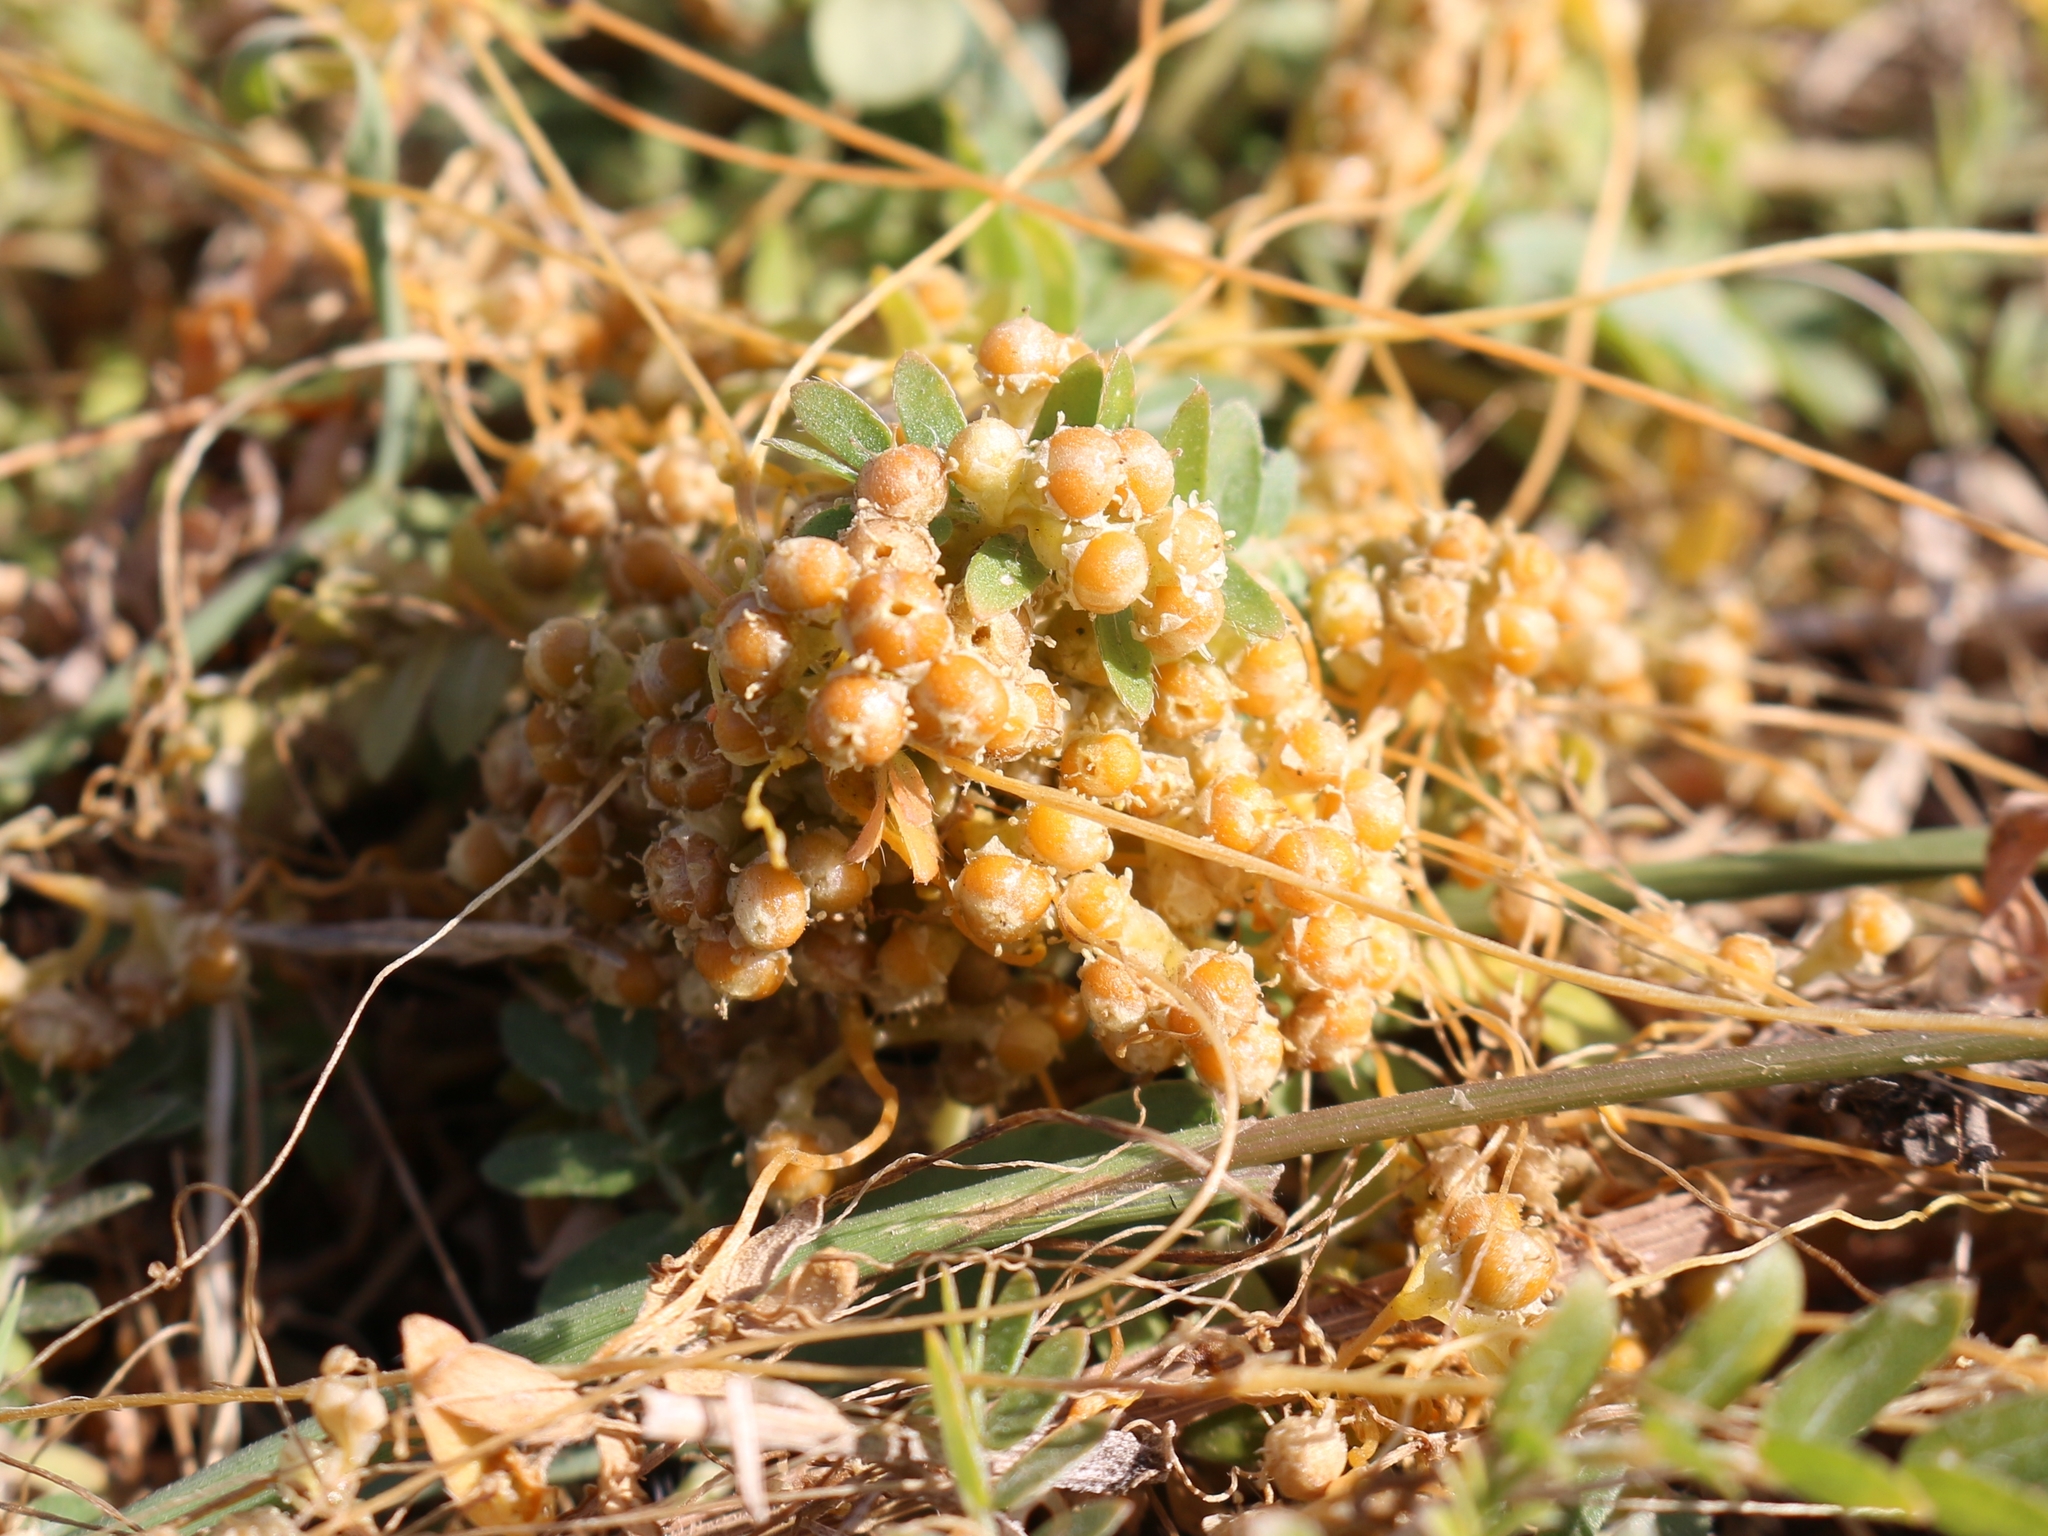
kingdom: Plantae
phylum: Tracheophyta
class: Magnoliopsida
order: Solanales
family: Convolvulaceae
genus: Cuscuta
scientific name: Cuscuta campestris
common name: Yellow dodder
